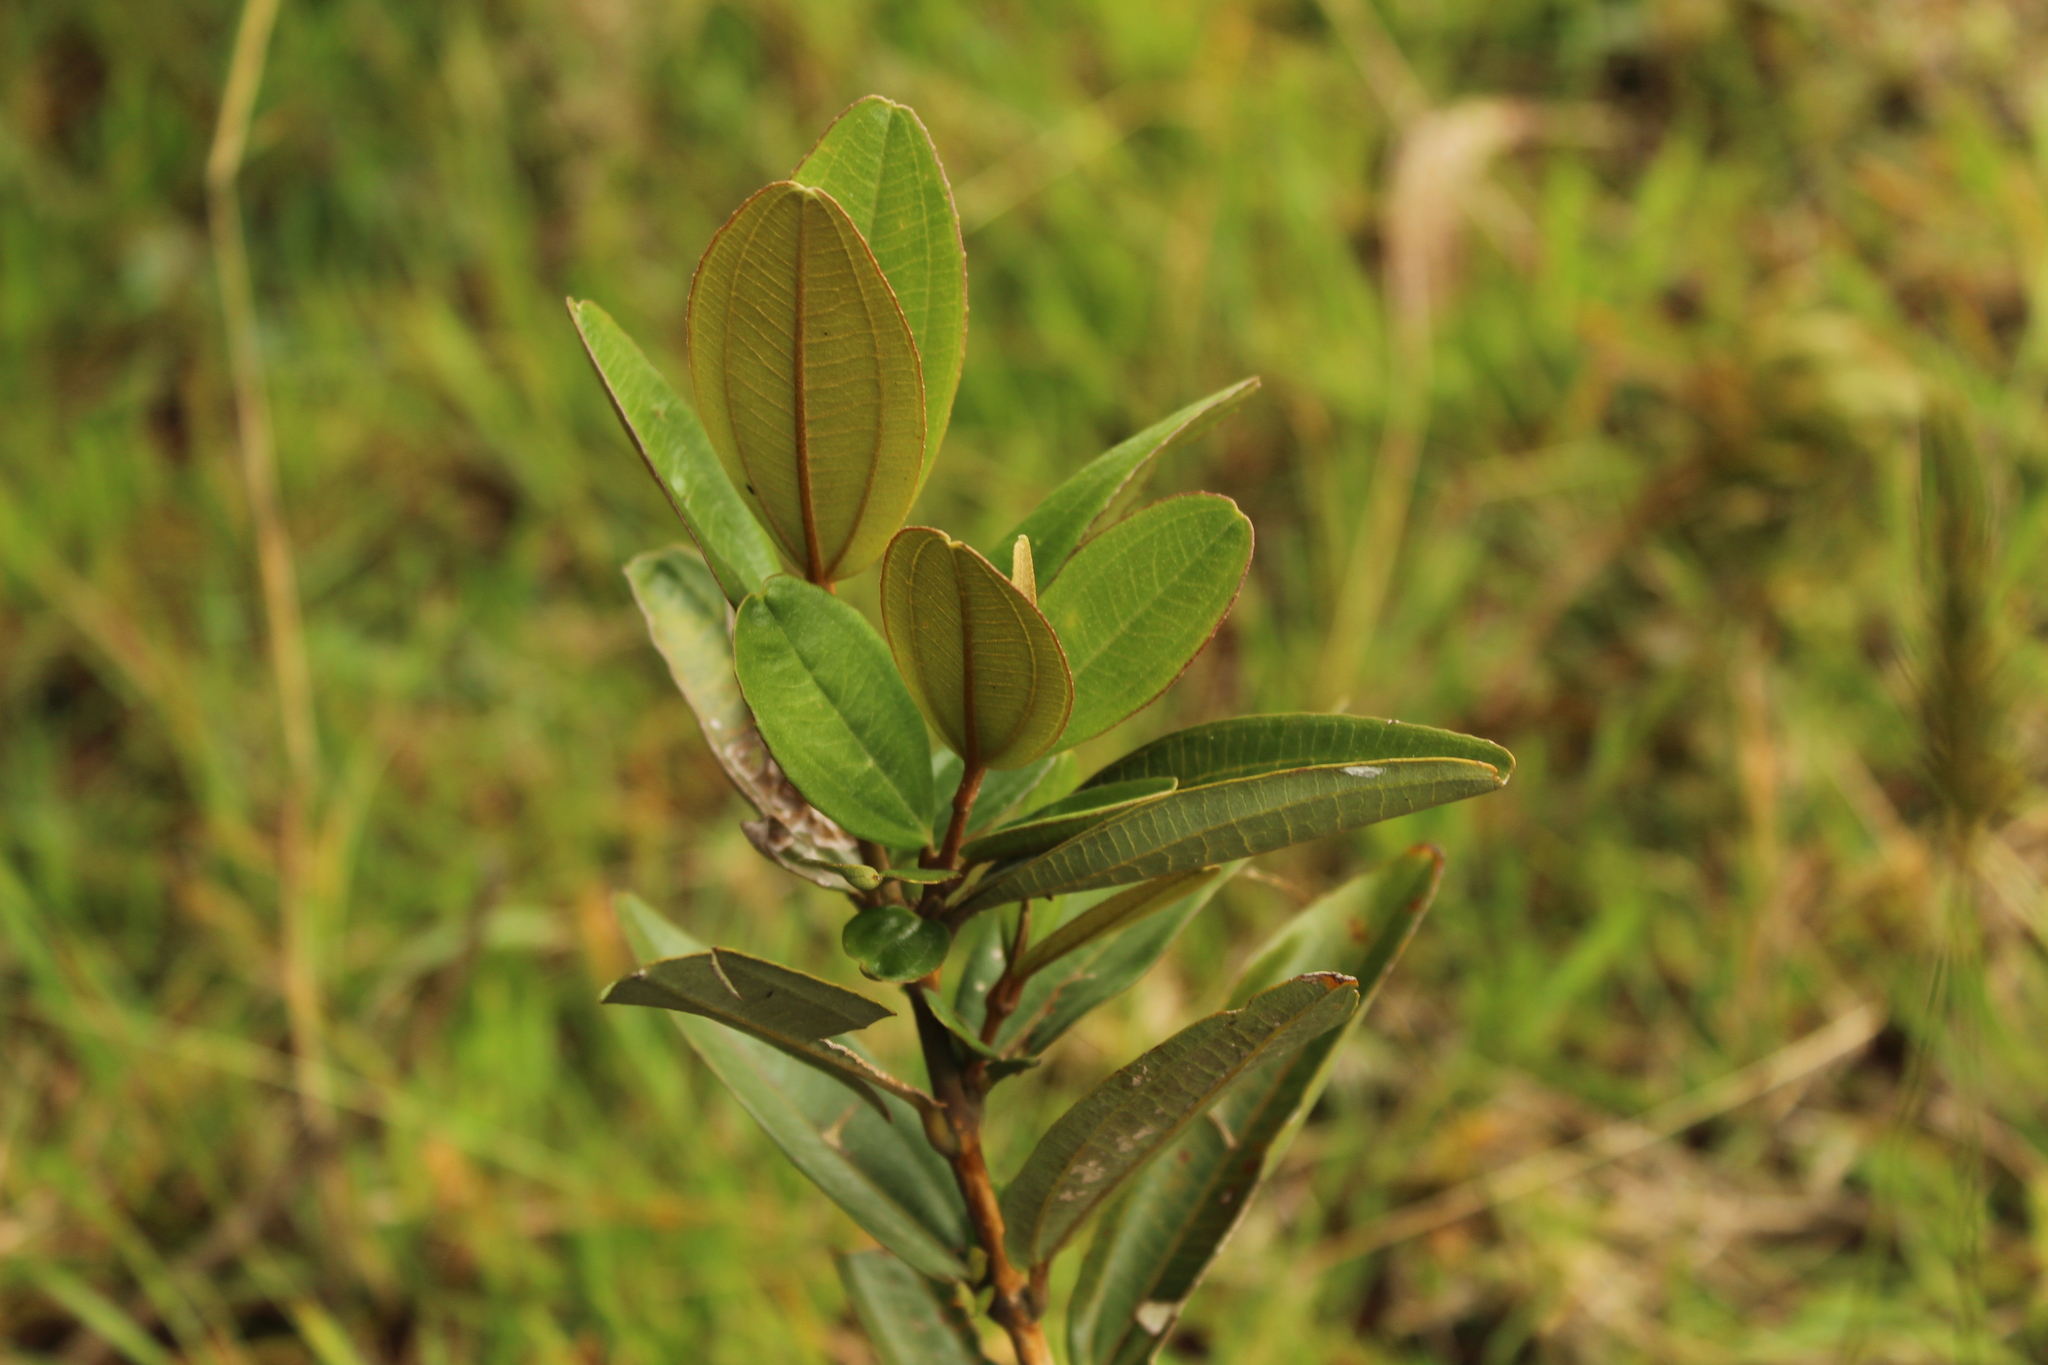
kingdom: Plantae
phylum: Tracheophyta
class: Magnoliopsida
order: Myrtales
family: Melastomataceae
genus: Miconia
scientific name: Miconia squamulosa
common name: Squamulose maya
